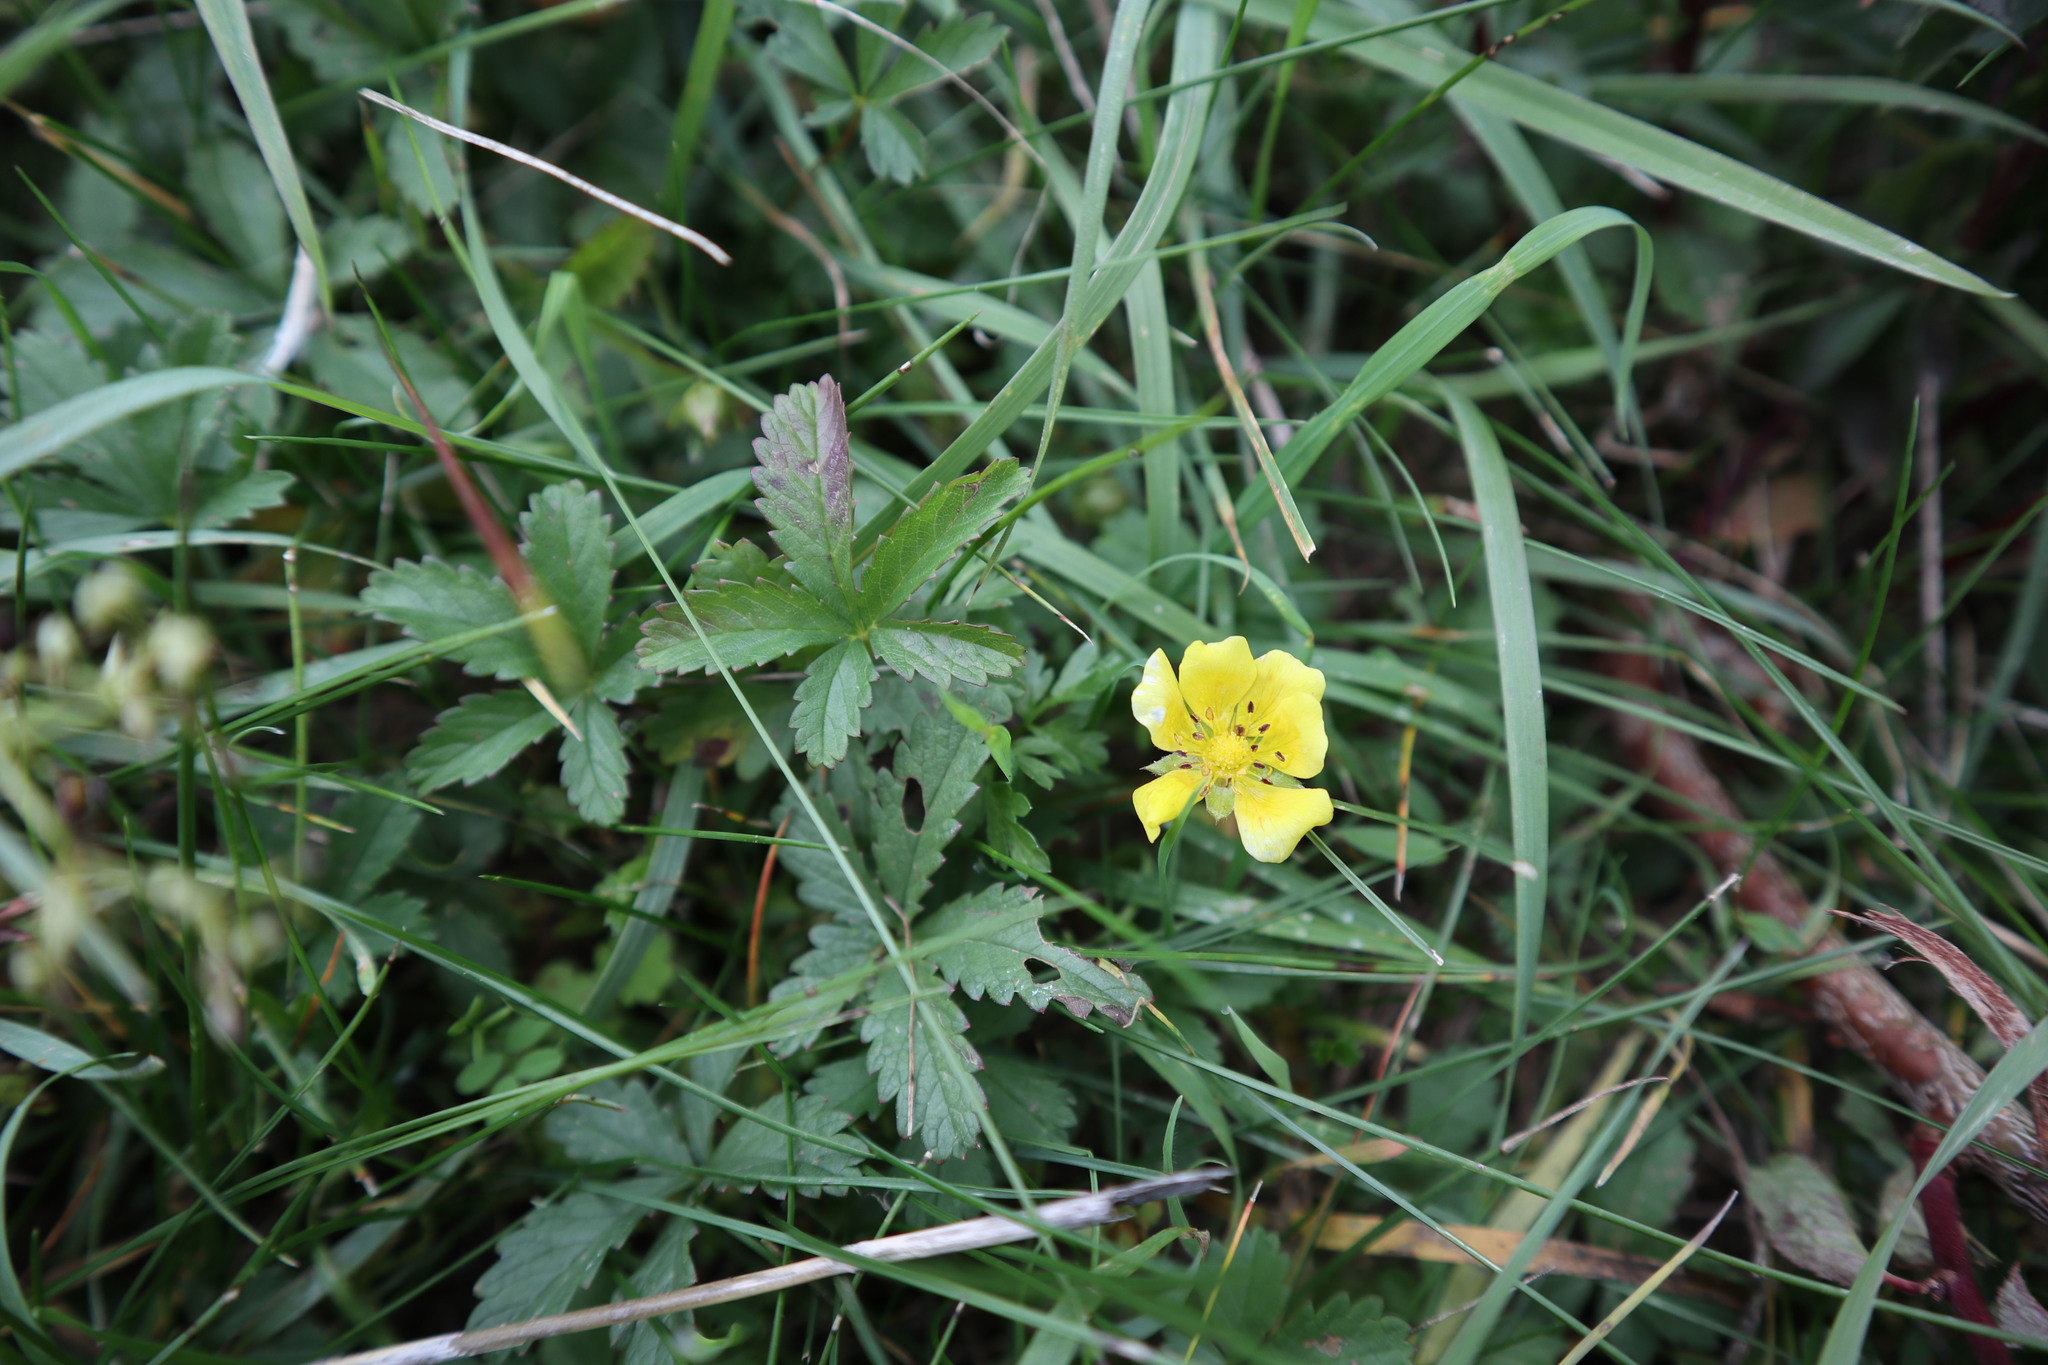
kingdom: Plantae
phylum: Tracheophyta
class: Magnoliopsida
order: Rosales
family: Rosaceae
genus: Potentilla
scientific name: Potentilla reptans
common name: Creeping cinquefoil
